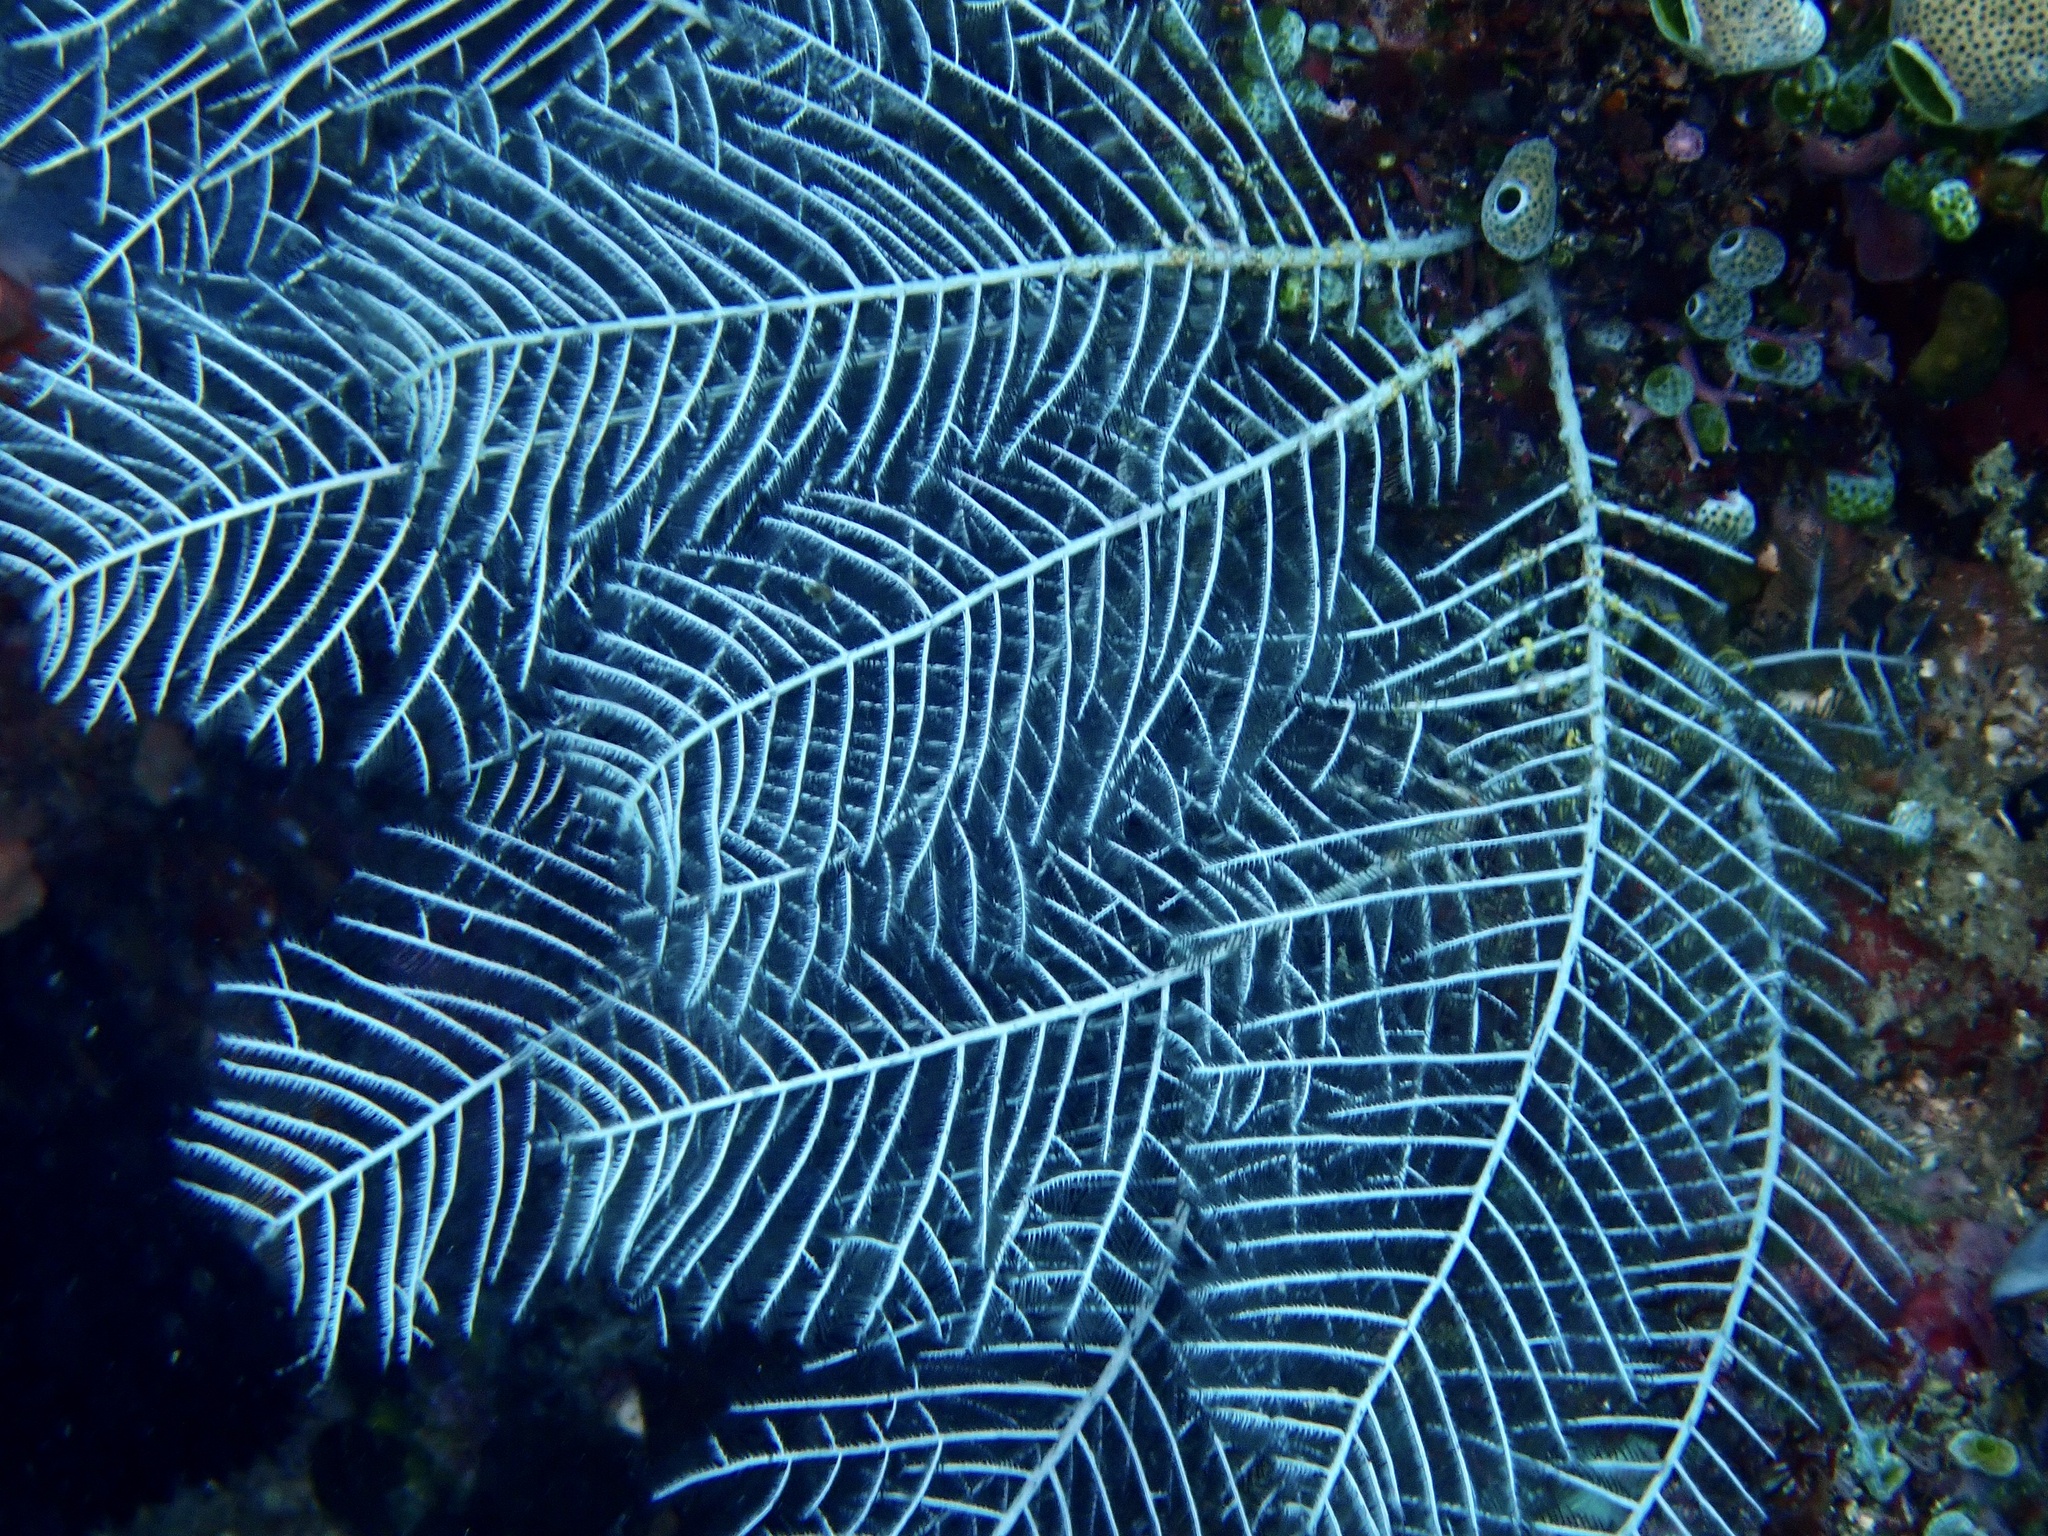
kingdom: Animalia
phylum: Cnidaria
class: Hydrozoa
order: Leptothecata
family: Aglaopheniidae
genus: Macrorhynchia
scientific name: Macrorhynchia phoenicea
